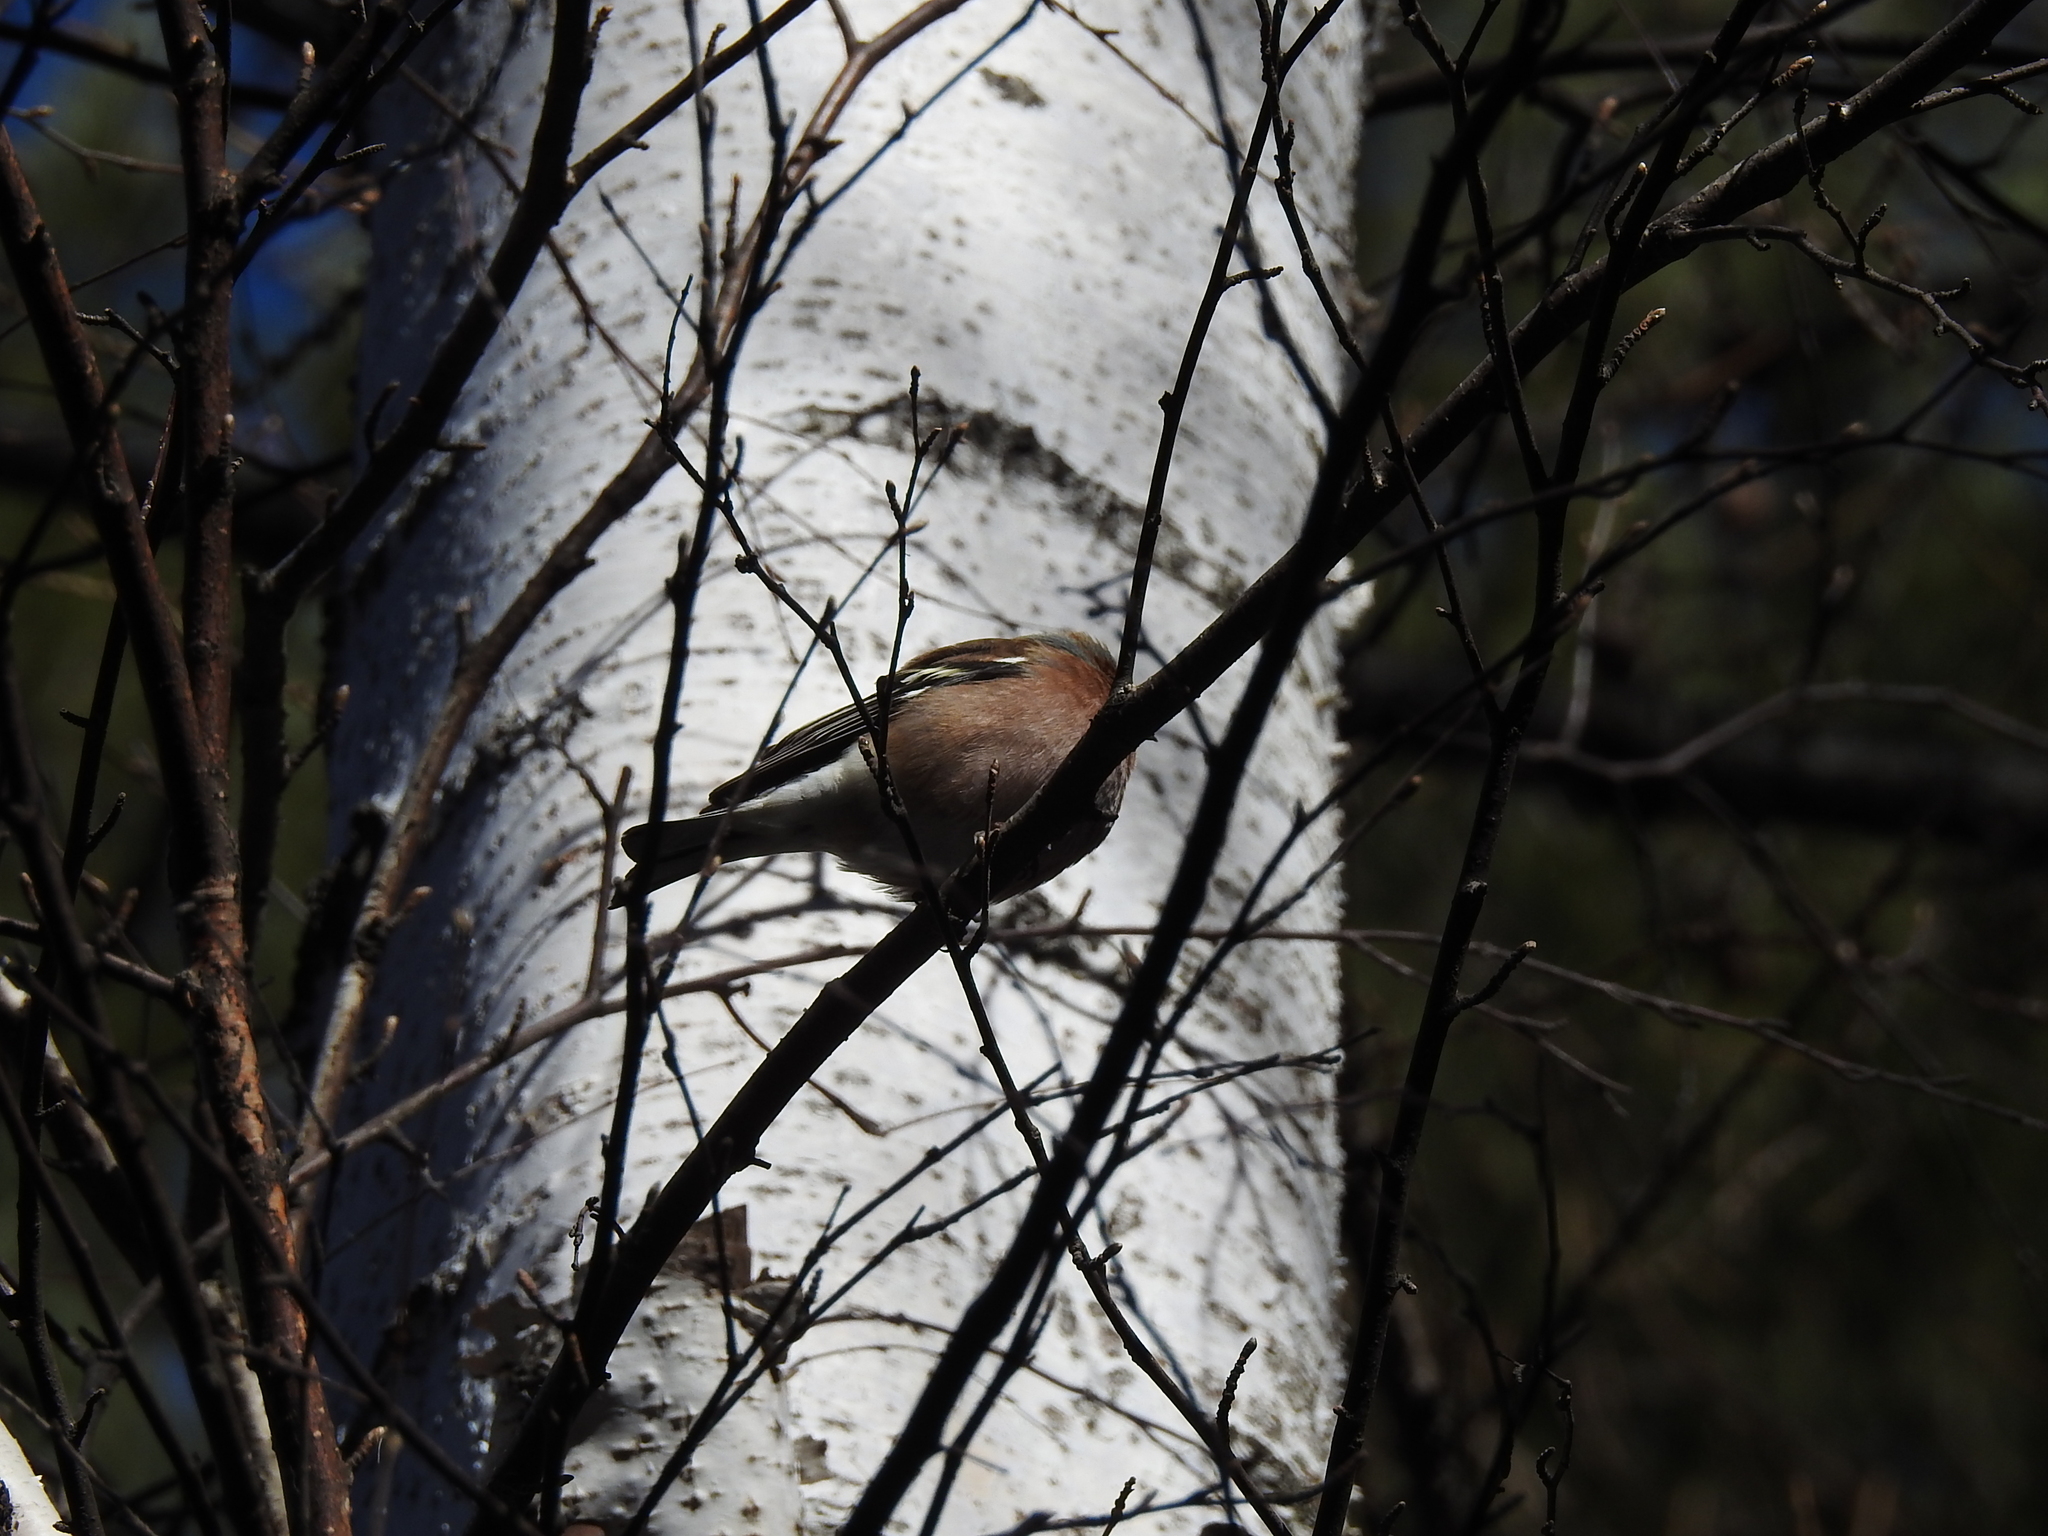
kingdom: Animalia
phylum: Chordata
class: Aves
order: Passeriformes
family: Fringillidae
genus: Fringilla
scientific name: Fringilla coelebs
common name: Common chaffinch
